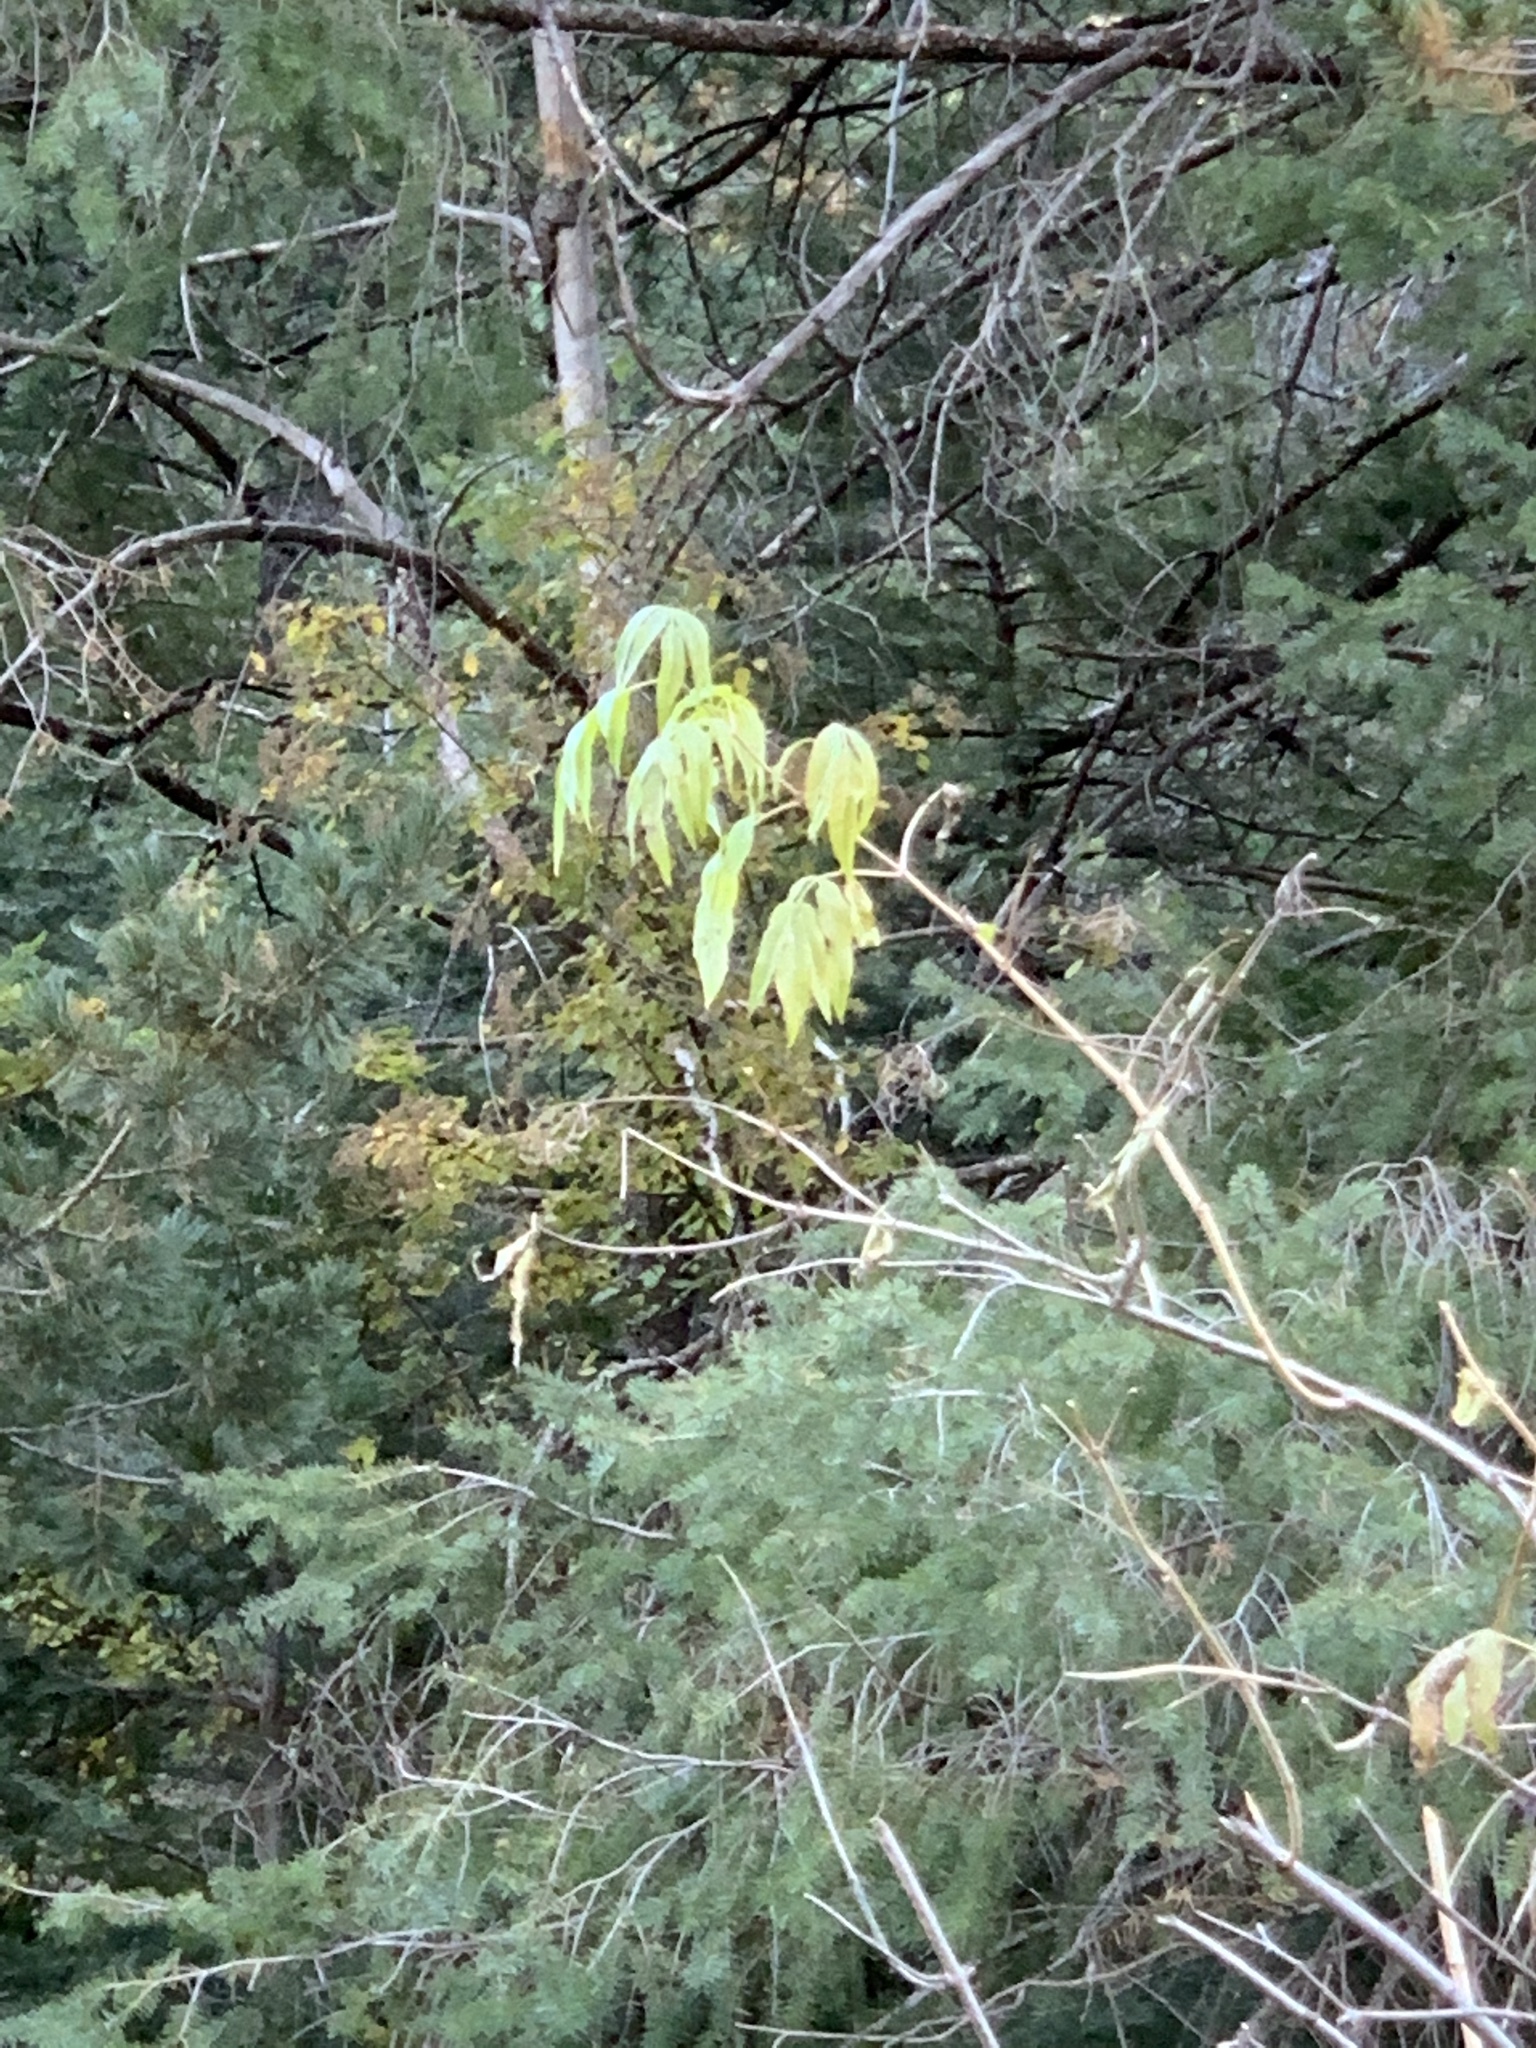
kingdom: Plantae
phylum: Tracheophyta
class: Magnoliopsida
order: Dipsacales
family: Viburnaceae
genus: Sambucus
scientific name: Sambucus cerulea
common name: Blue elder
